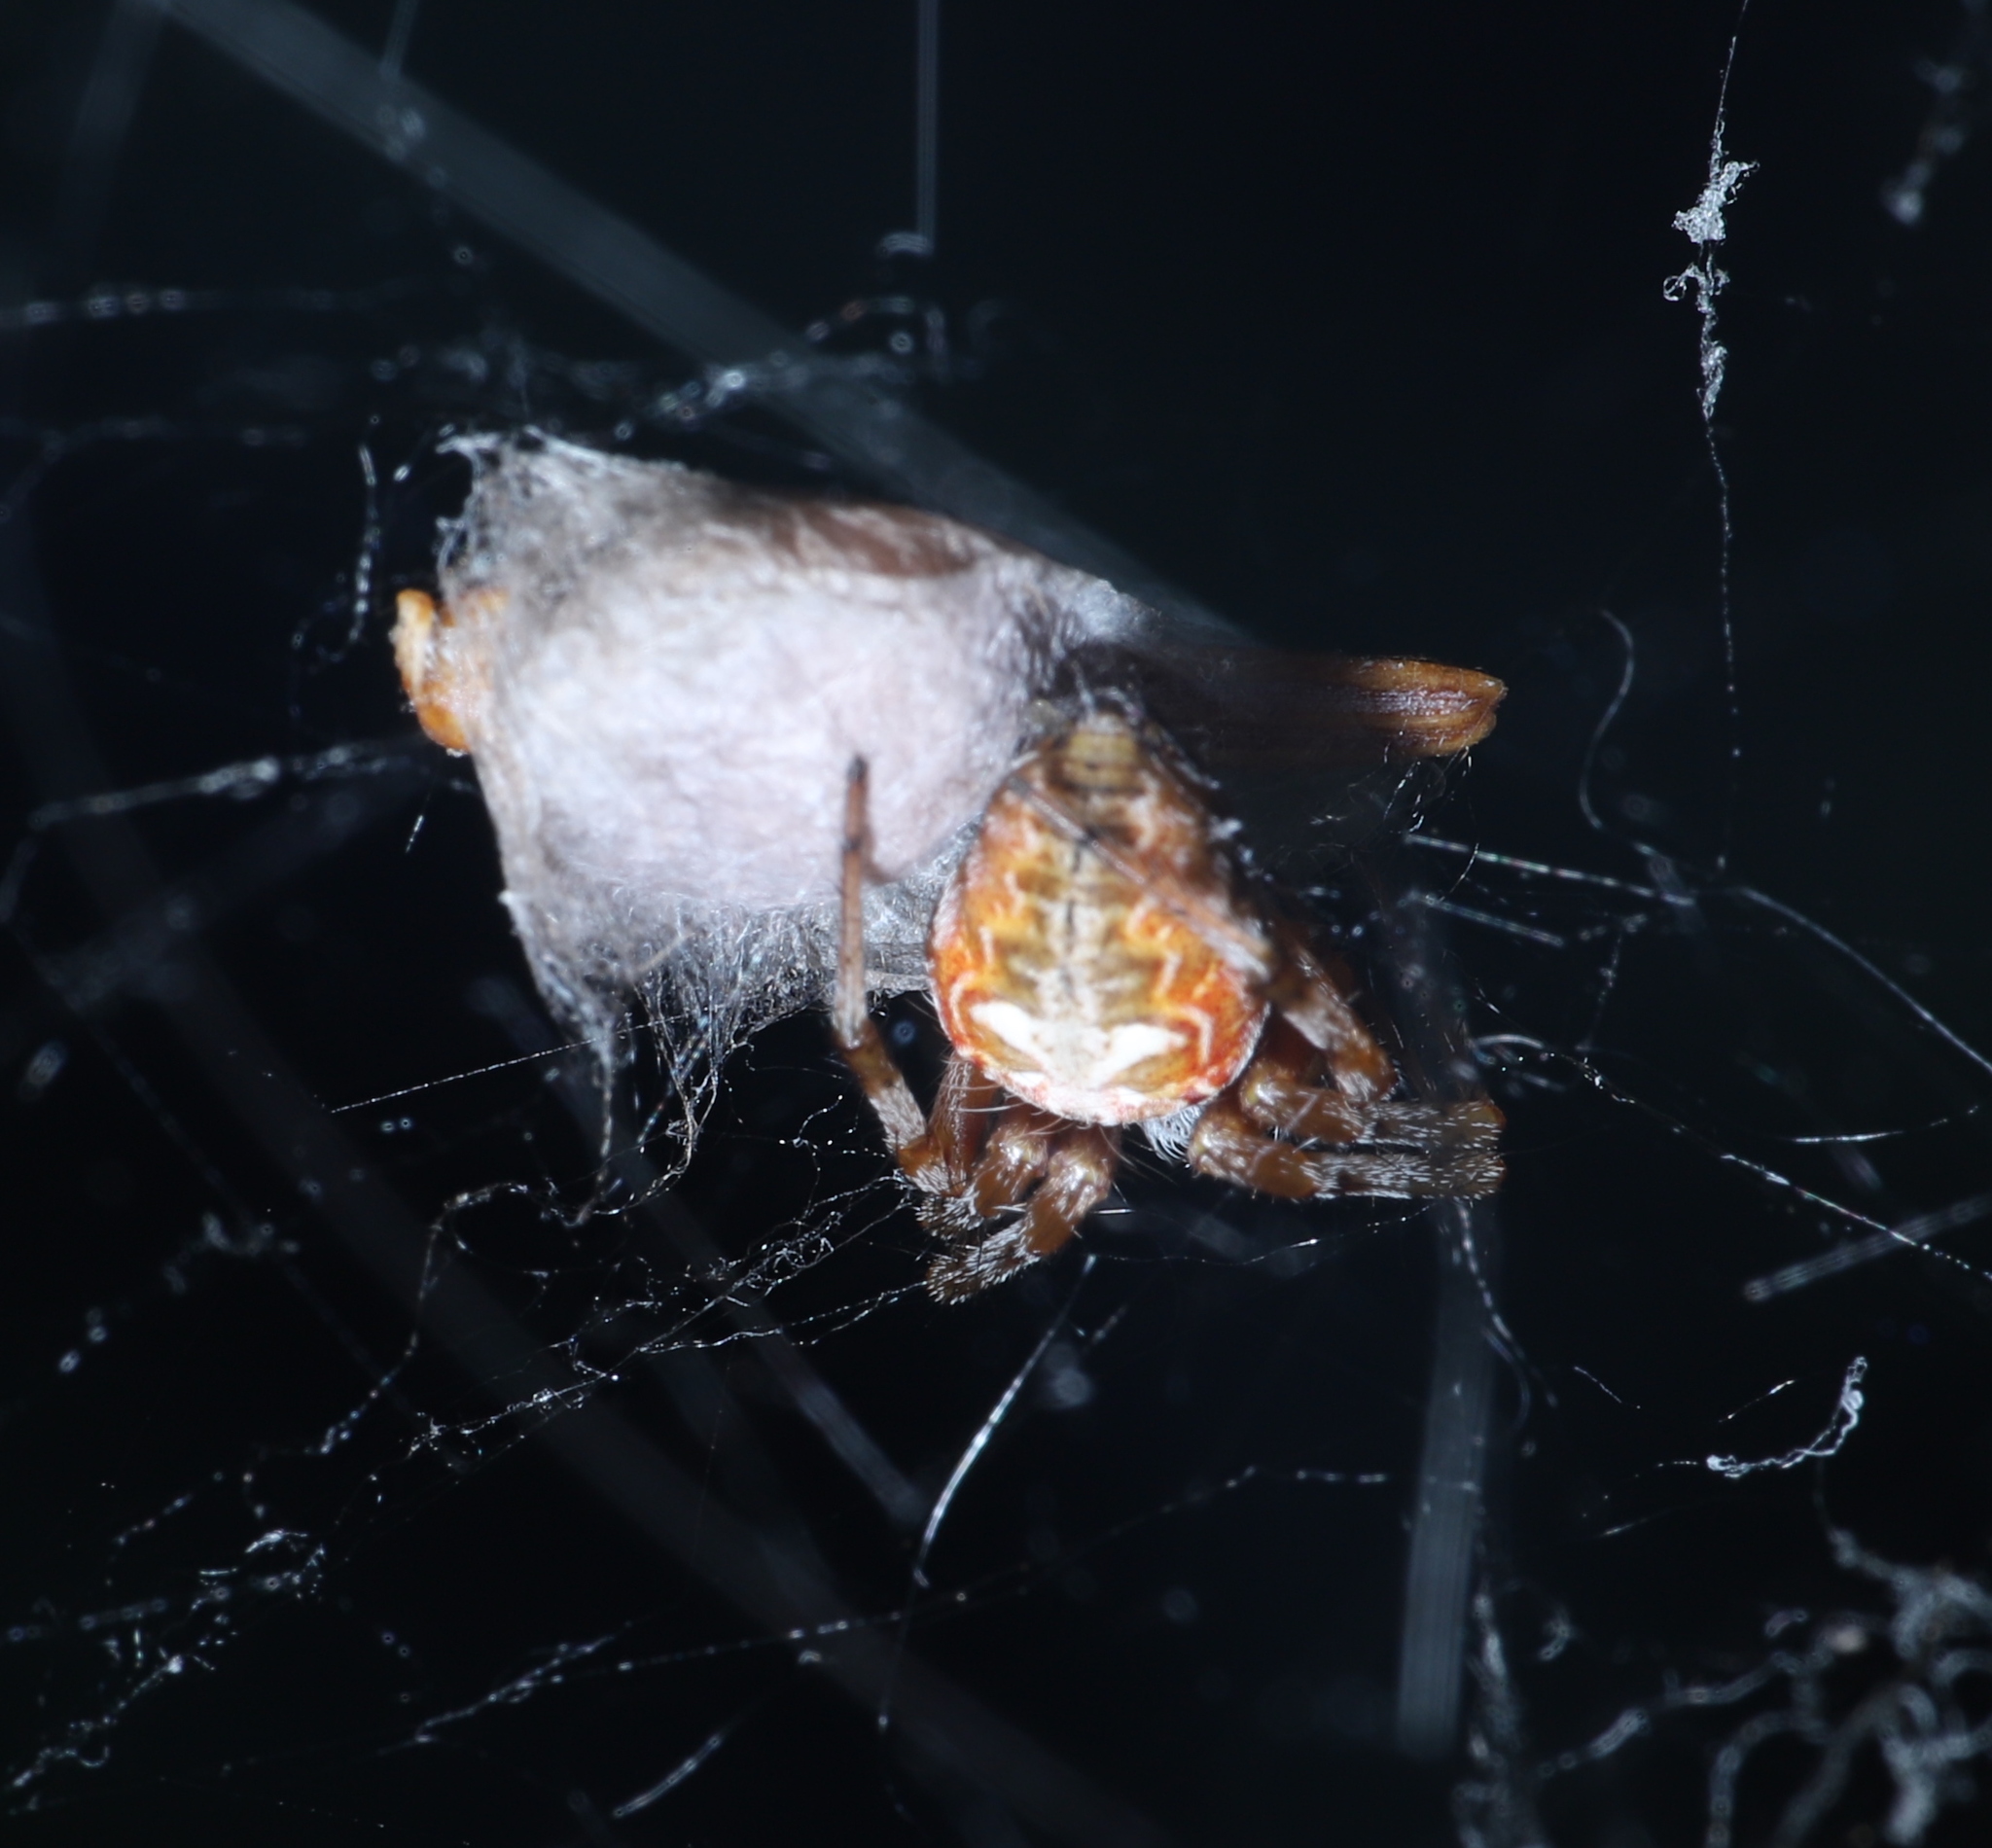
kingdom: Animalia
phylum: Arthropoda
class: Arachnida
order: Araneae
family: Araneidae
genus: Metepeira
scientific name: Metepeira labyrinthea
